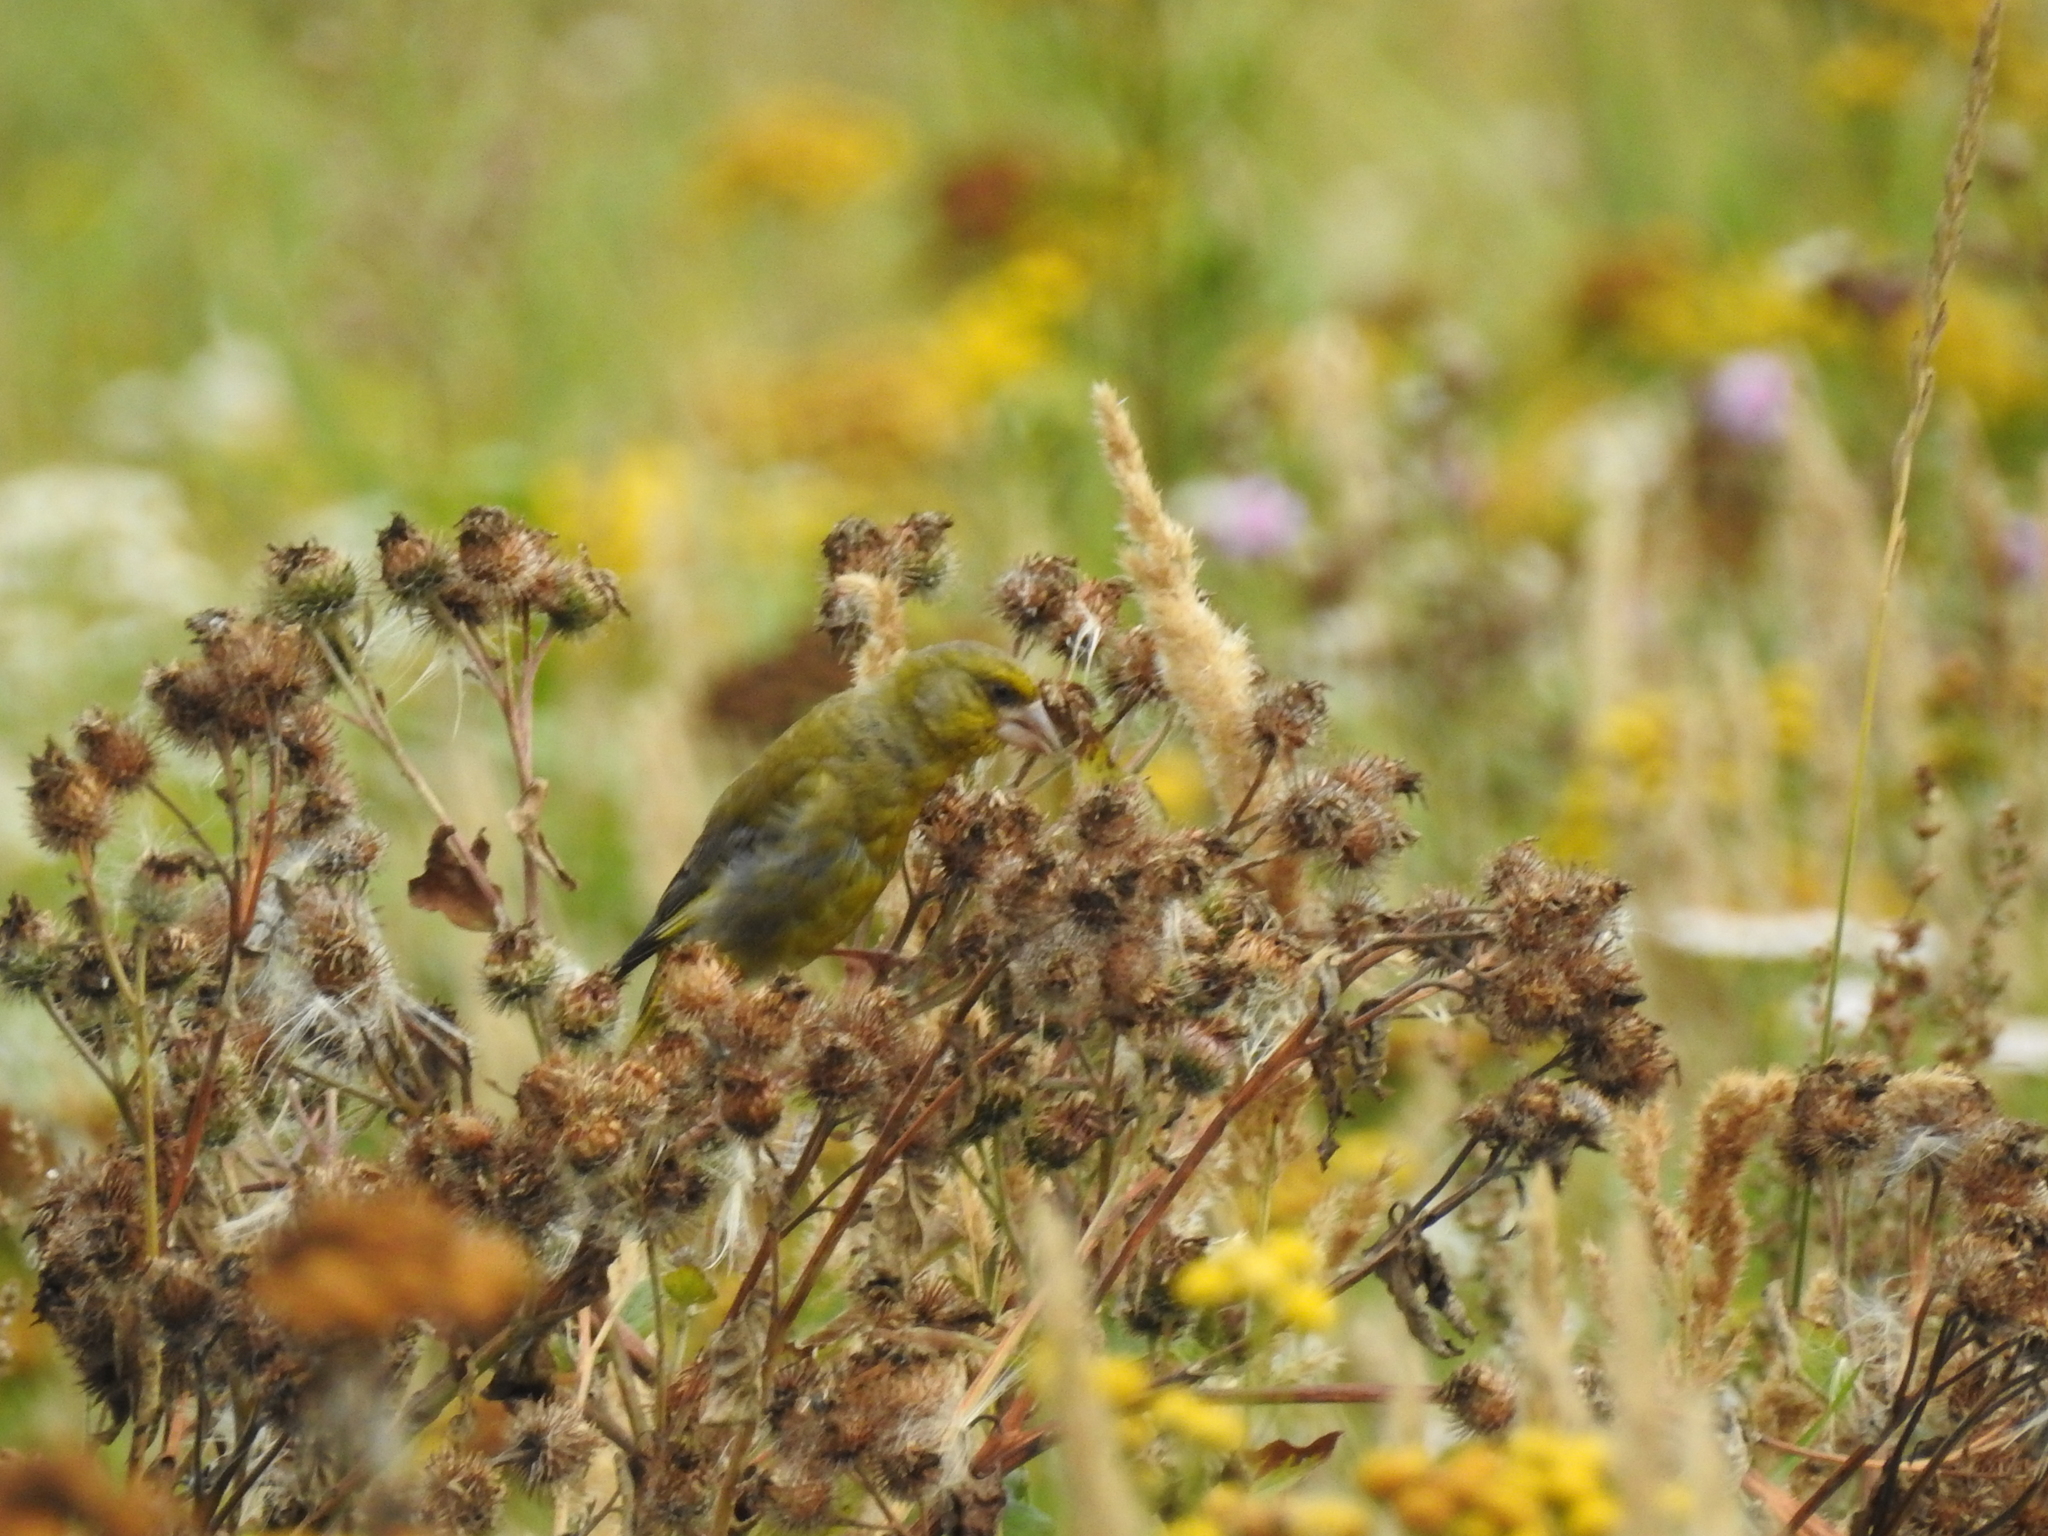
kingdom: Plantae
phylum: Tracheophyta
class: Liliopsida
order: Poales
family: Poaceae
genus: Chloris
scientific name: Chloris chloris
